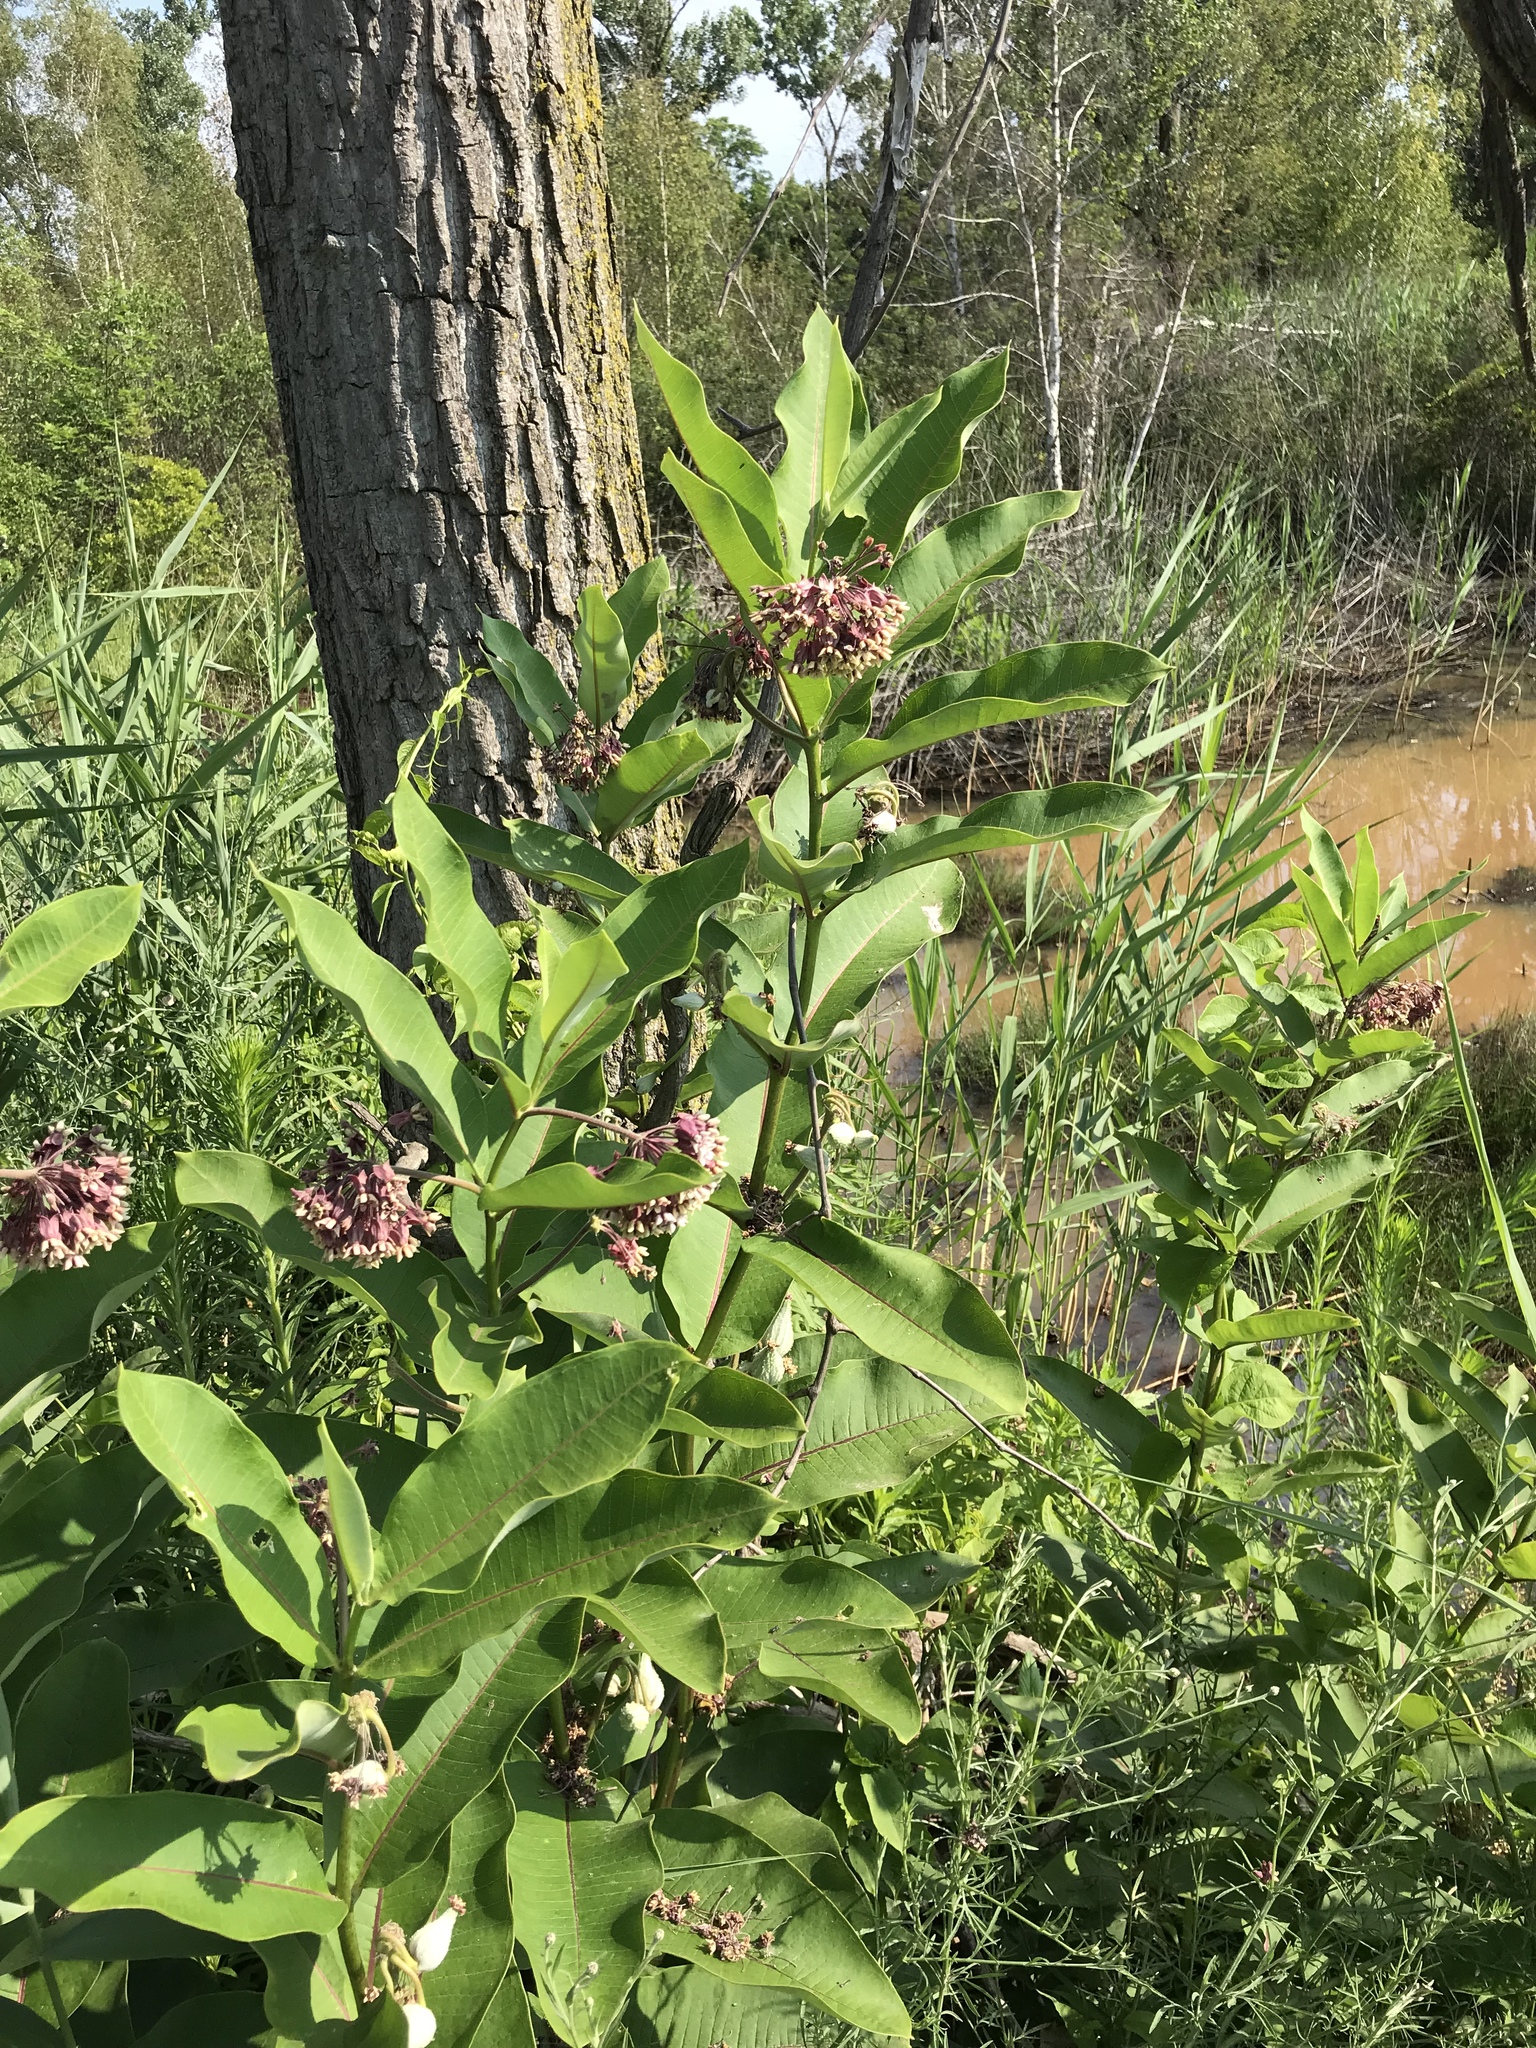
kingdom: Plantae
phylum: Tracheophyta
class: Magnoliopsida
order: Gentianales
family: Apocynaceae
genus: Asclepias
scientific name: Asclepias syriaca
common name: Common milkweed
